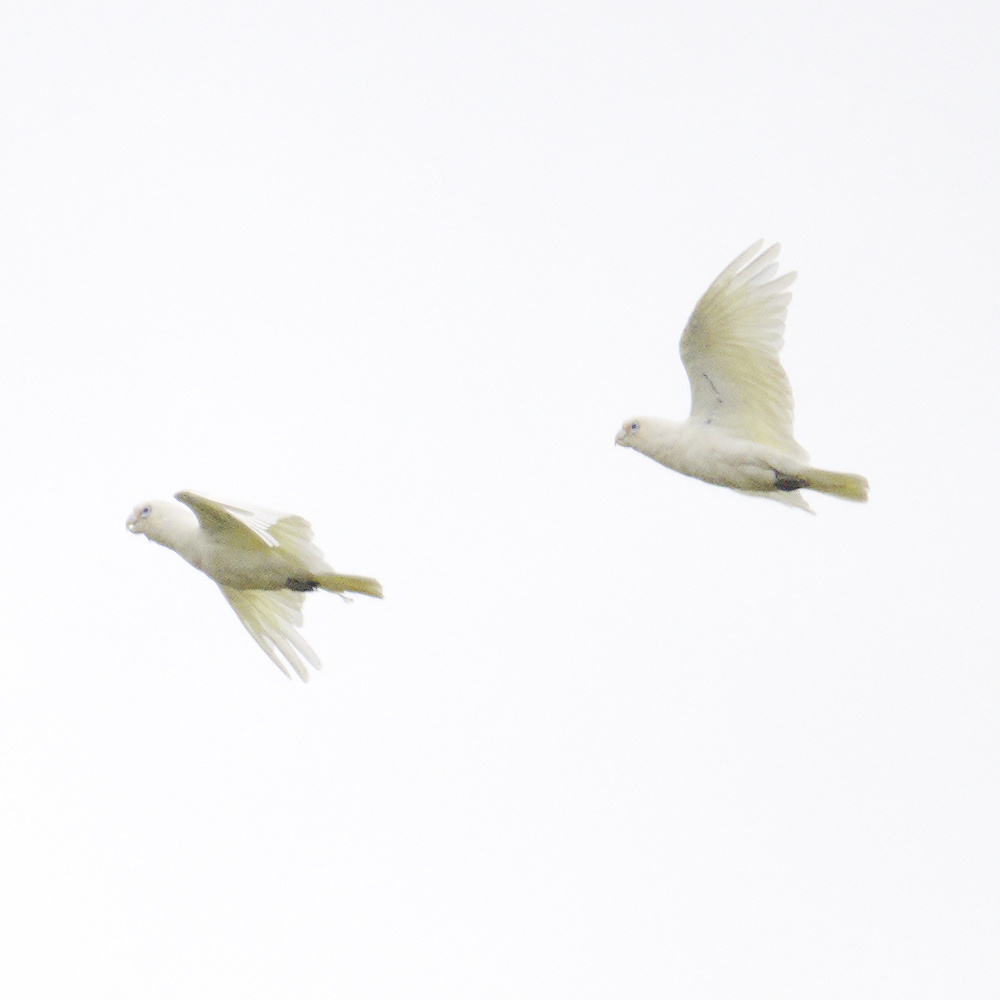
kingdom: Animalia
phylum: Chordata
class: Aves
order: Psittaciformes
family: Psittacidae
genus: Cacatua
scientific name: Cacatua sanguinea
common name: Little corella
